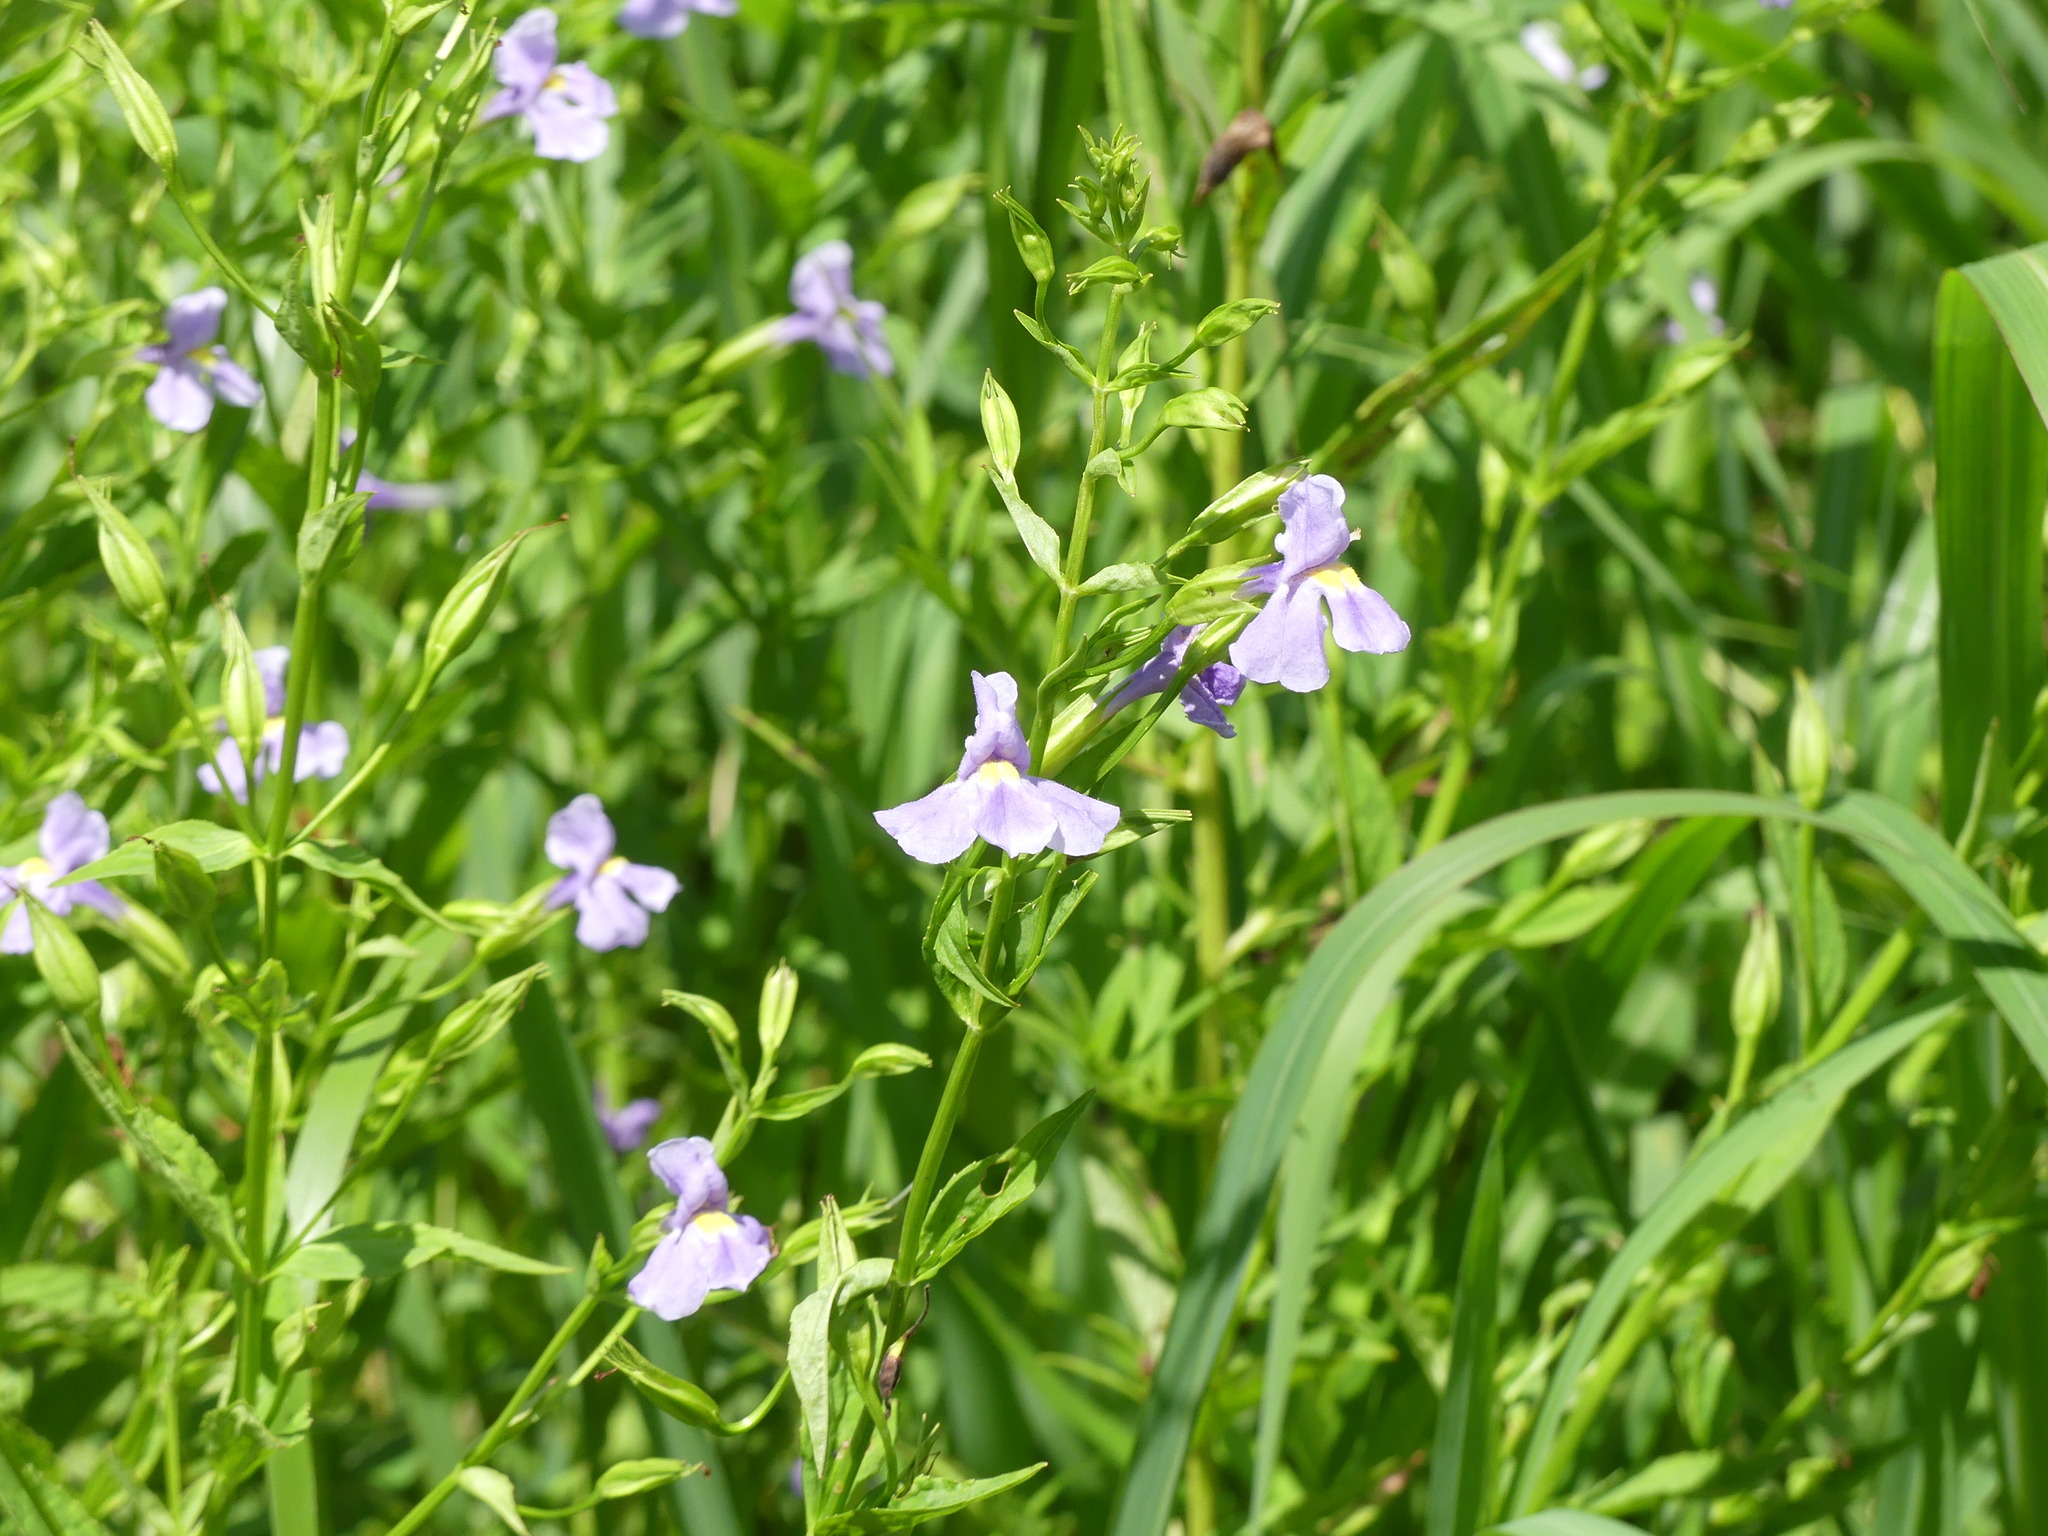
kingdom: Plantae
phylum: Tracheophyta
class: Magnoliopsida
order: Lamiales
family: Phrymaceae
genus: Mimulus
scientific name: Mimulus ringens
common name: Allegheny monkeyflower
